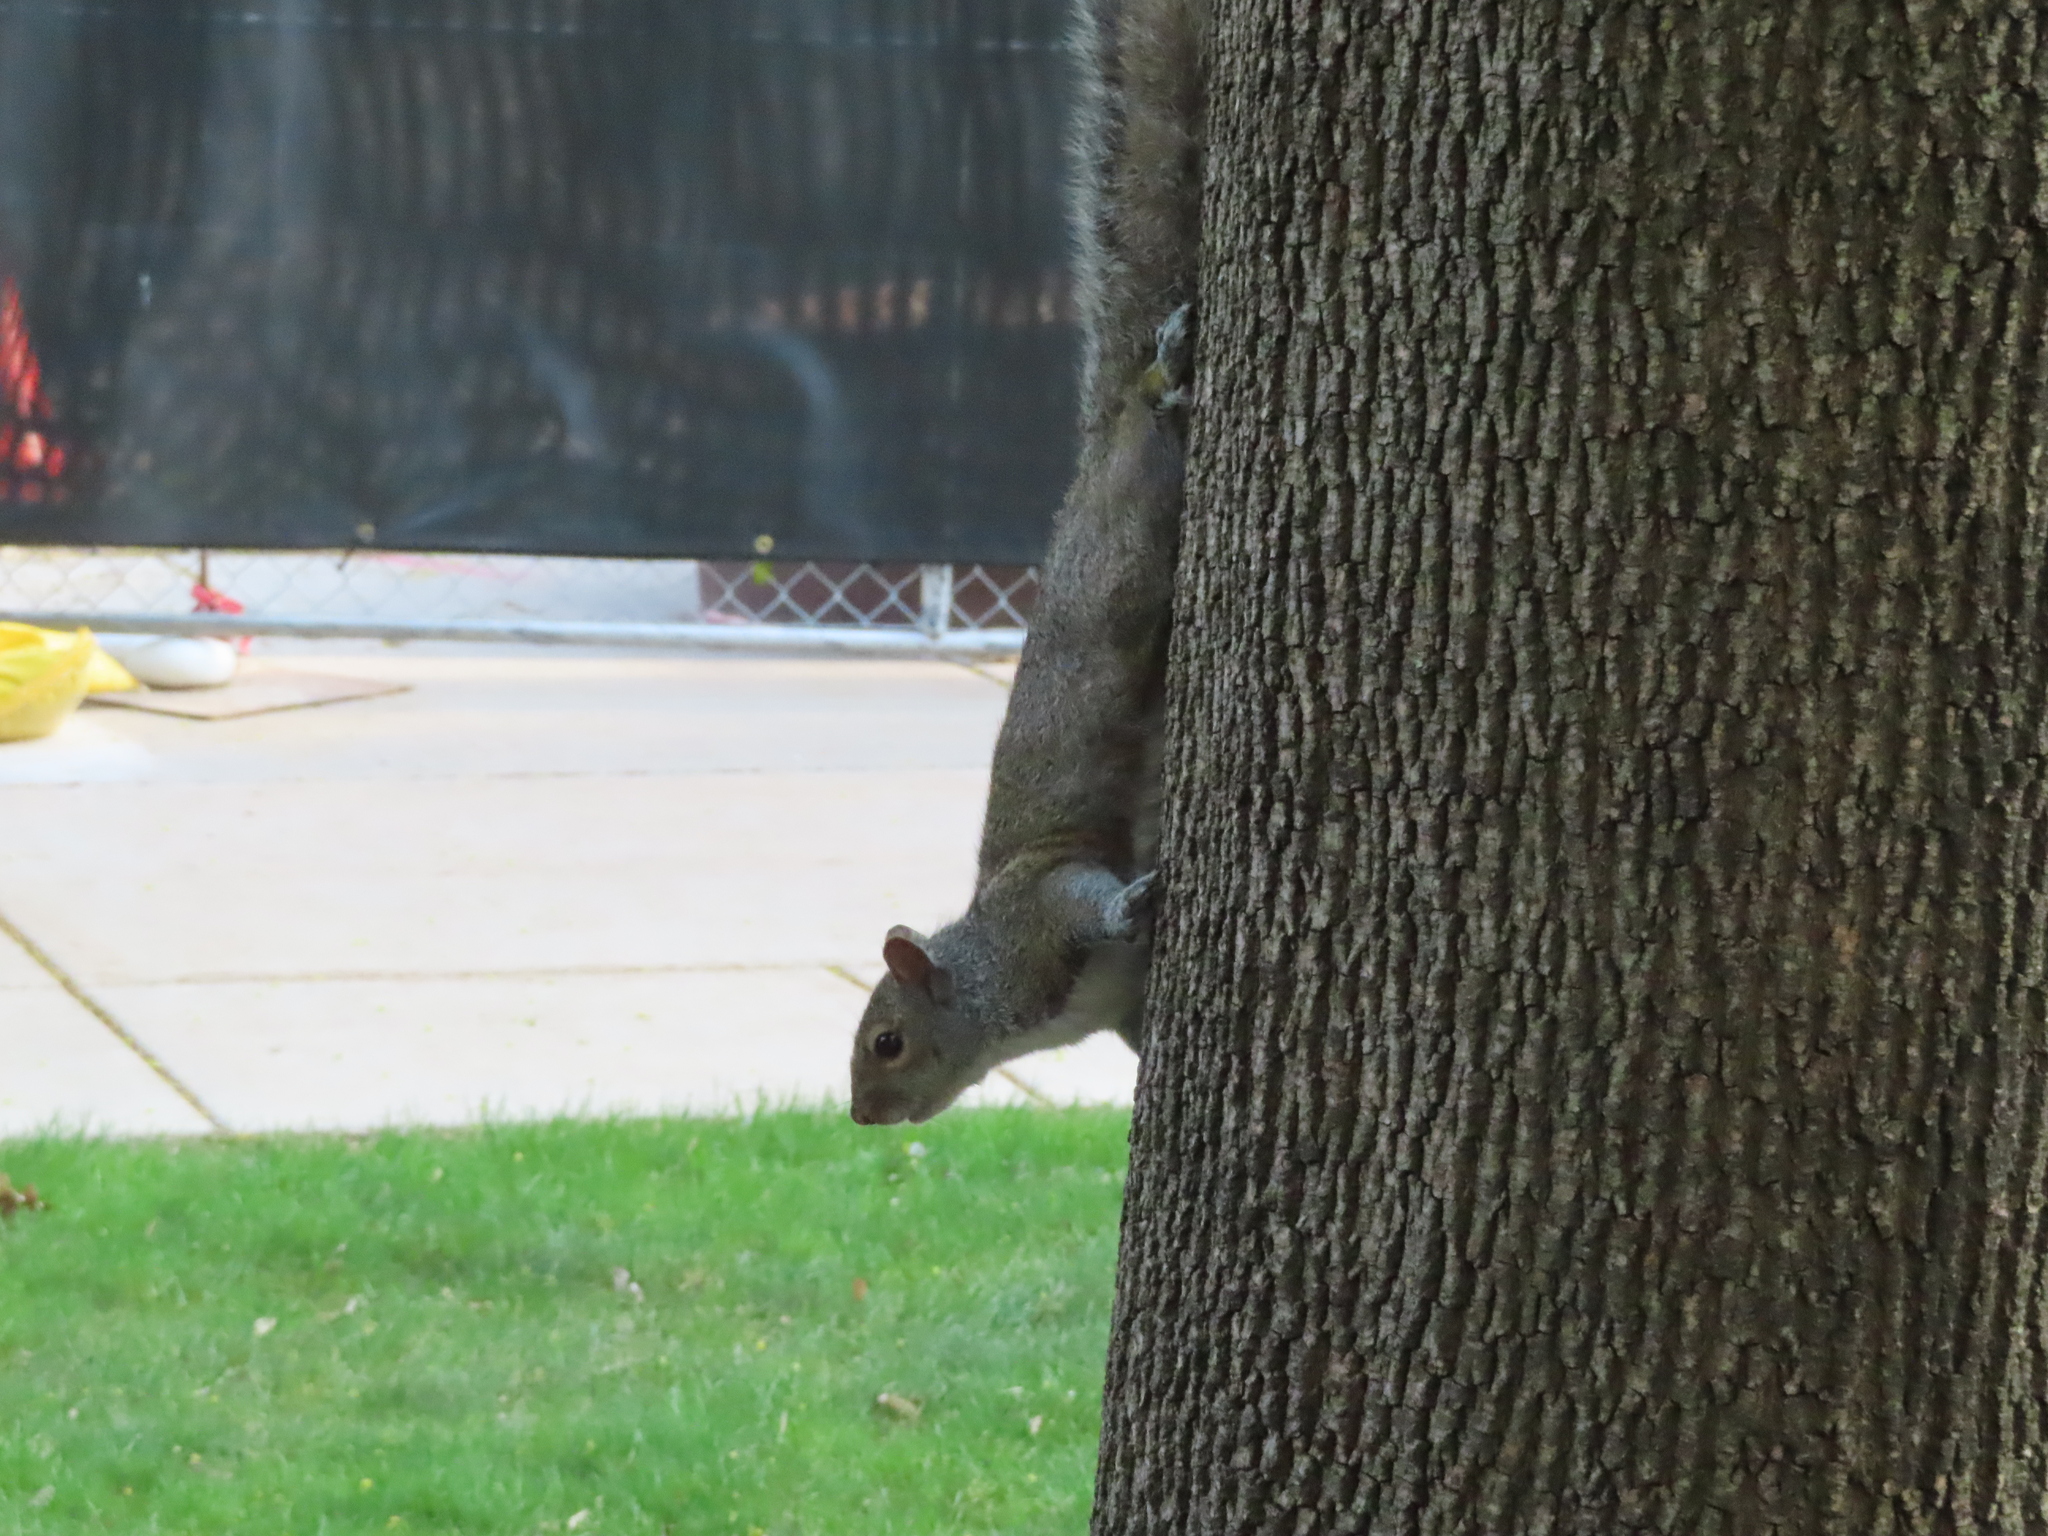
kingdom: Animalia
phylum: Chordata
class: Mammalia
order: Rodentia
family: Sciuridae
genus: Sciurus
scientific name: Sciurus carolinensis
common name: Eastern gray squirrel
